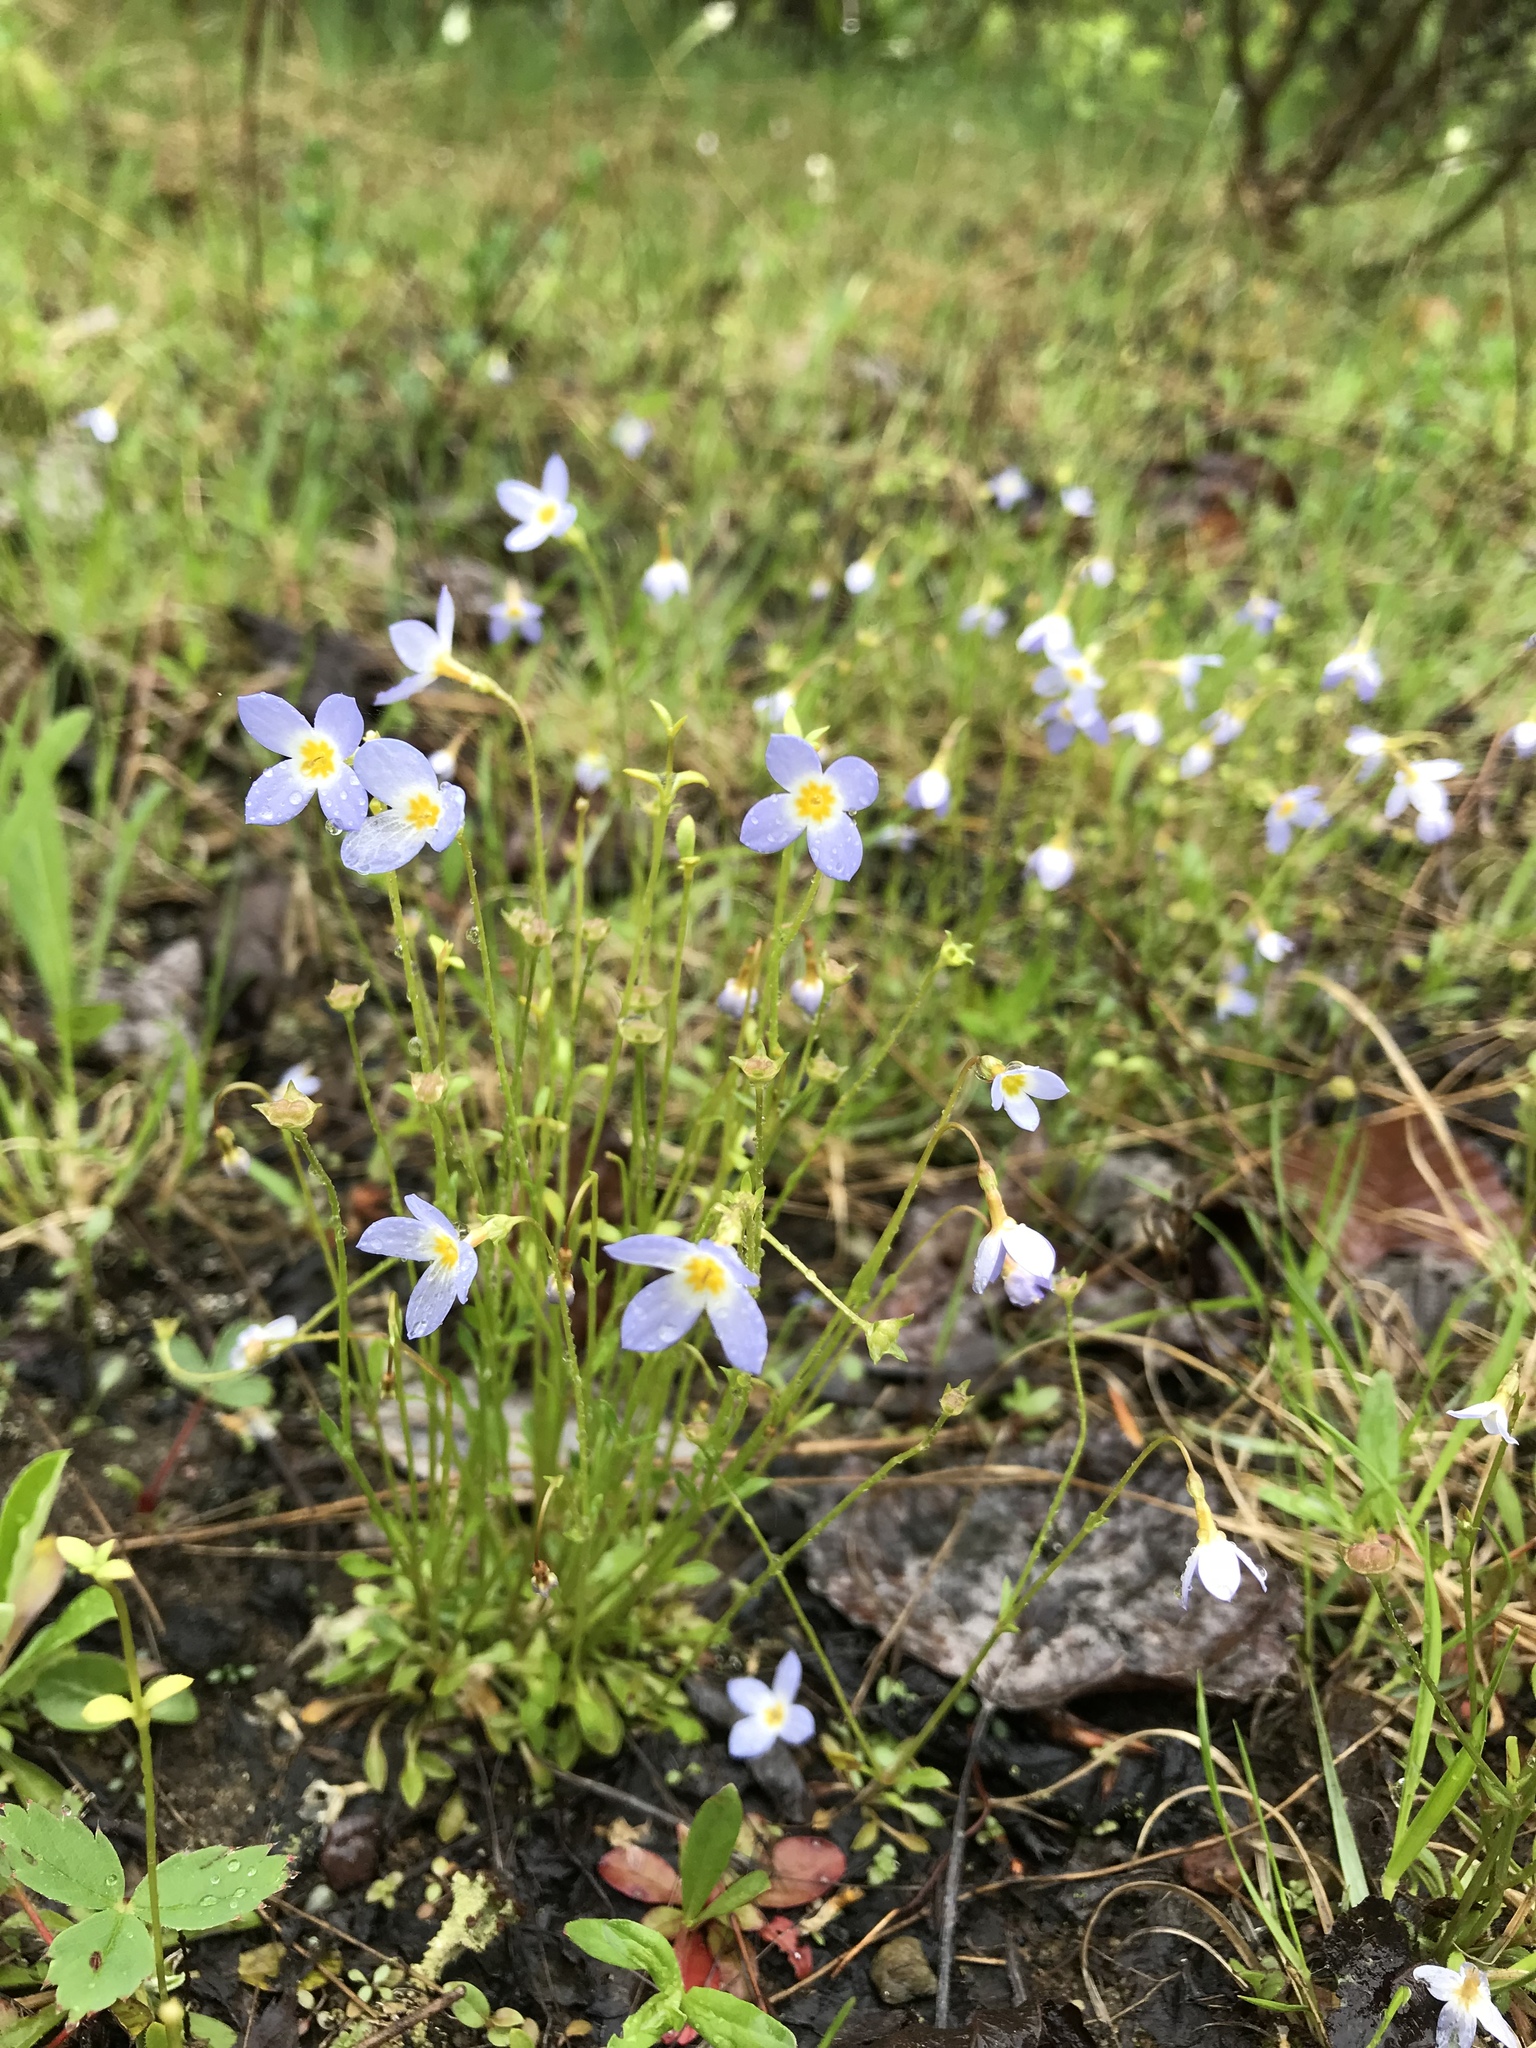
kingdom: Plantae
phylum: Tracheophyta
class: Magnoliopsida
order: Gentianales
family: Rubiaceae
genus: Houstonia
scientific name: Houstonia caerulea
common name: Bluets
